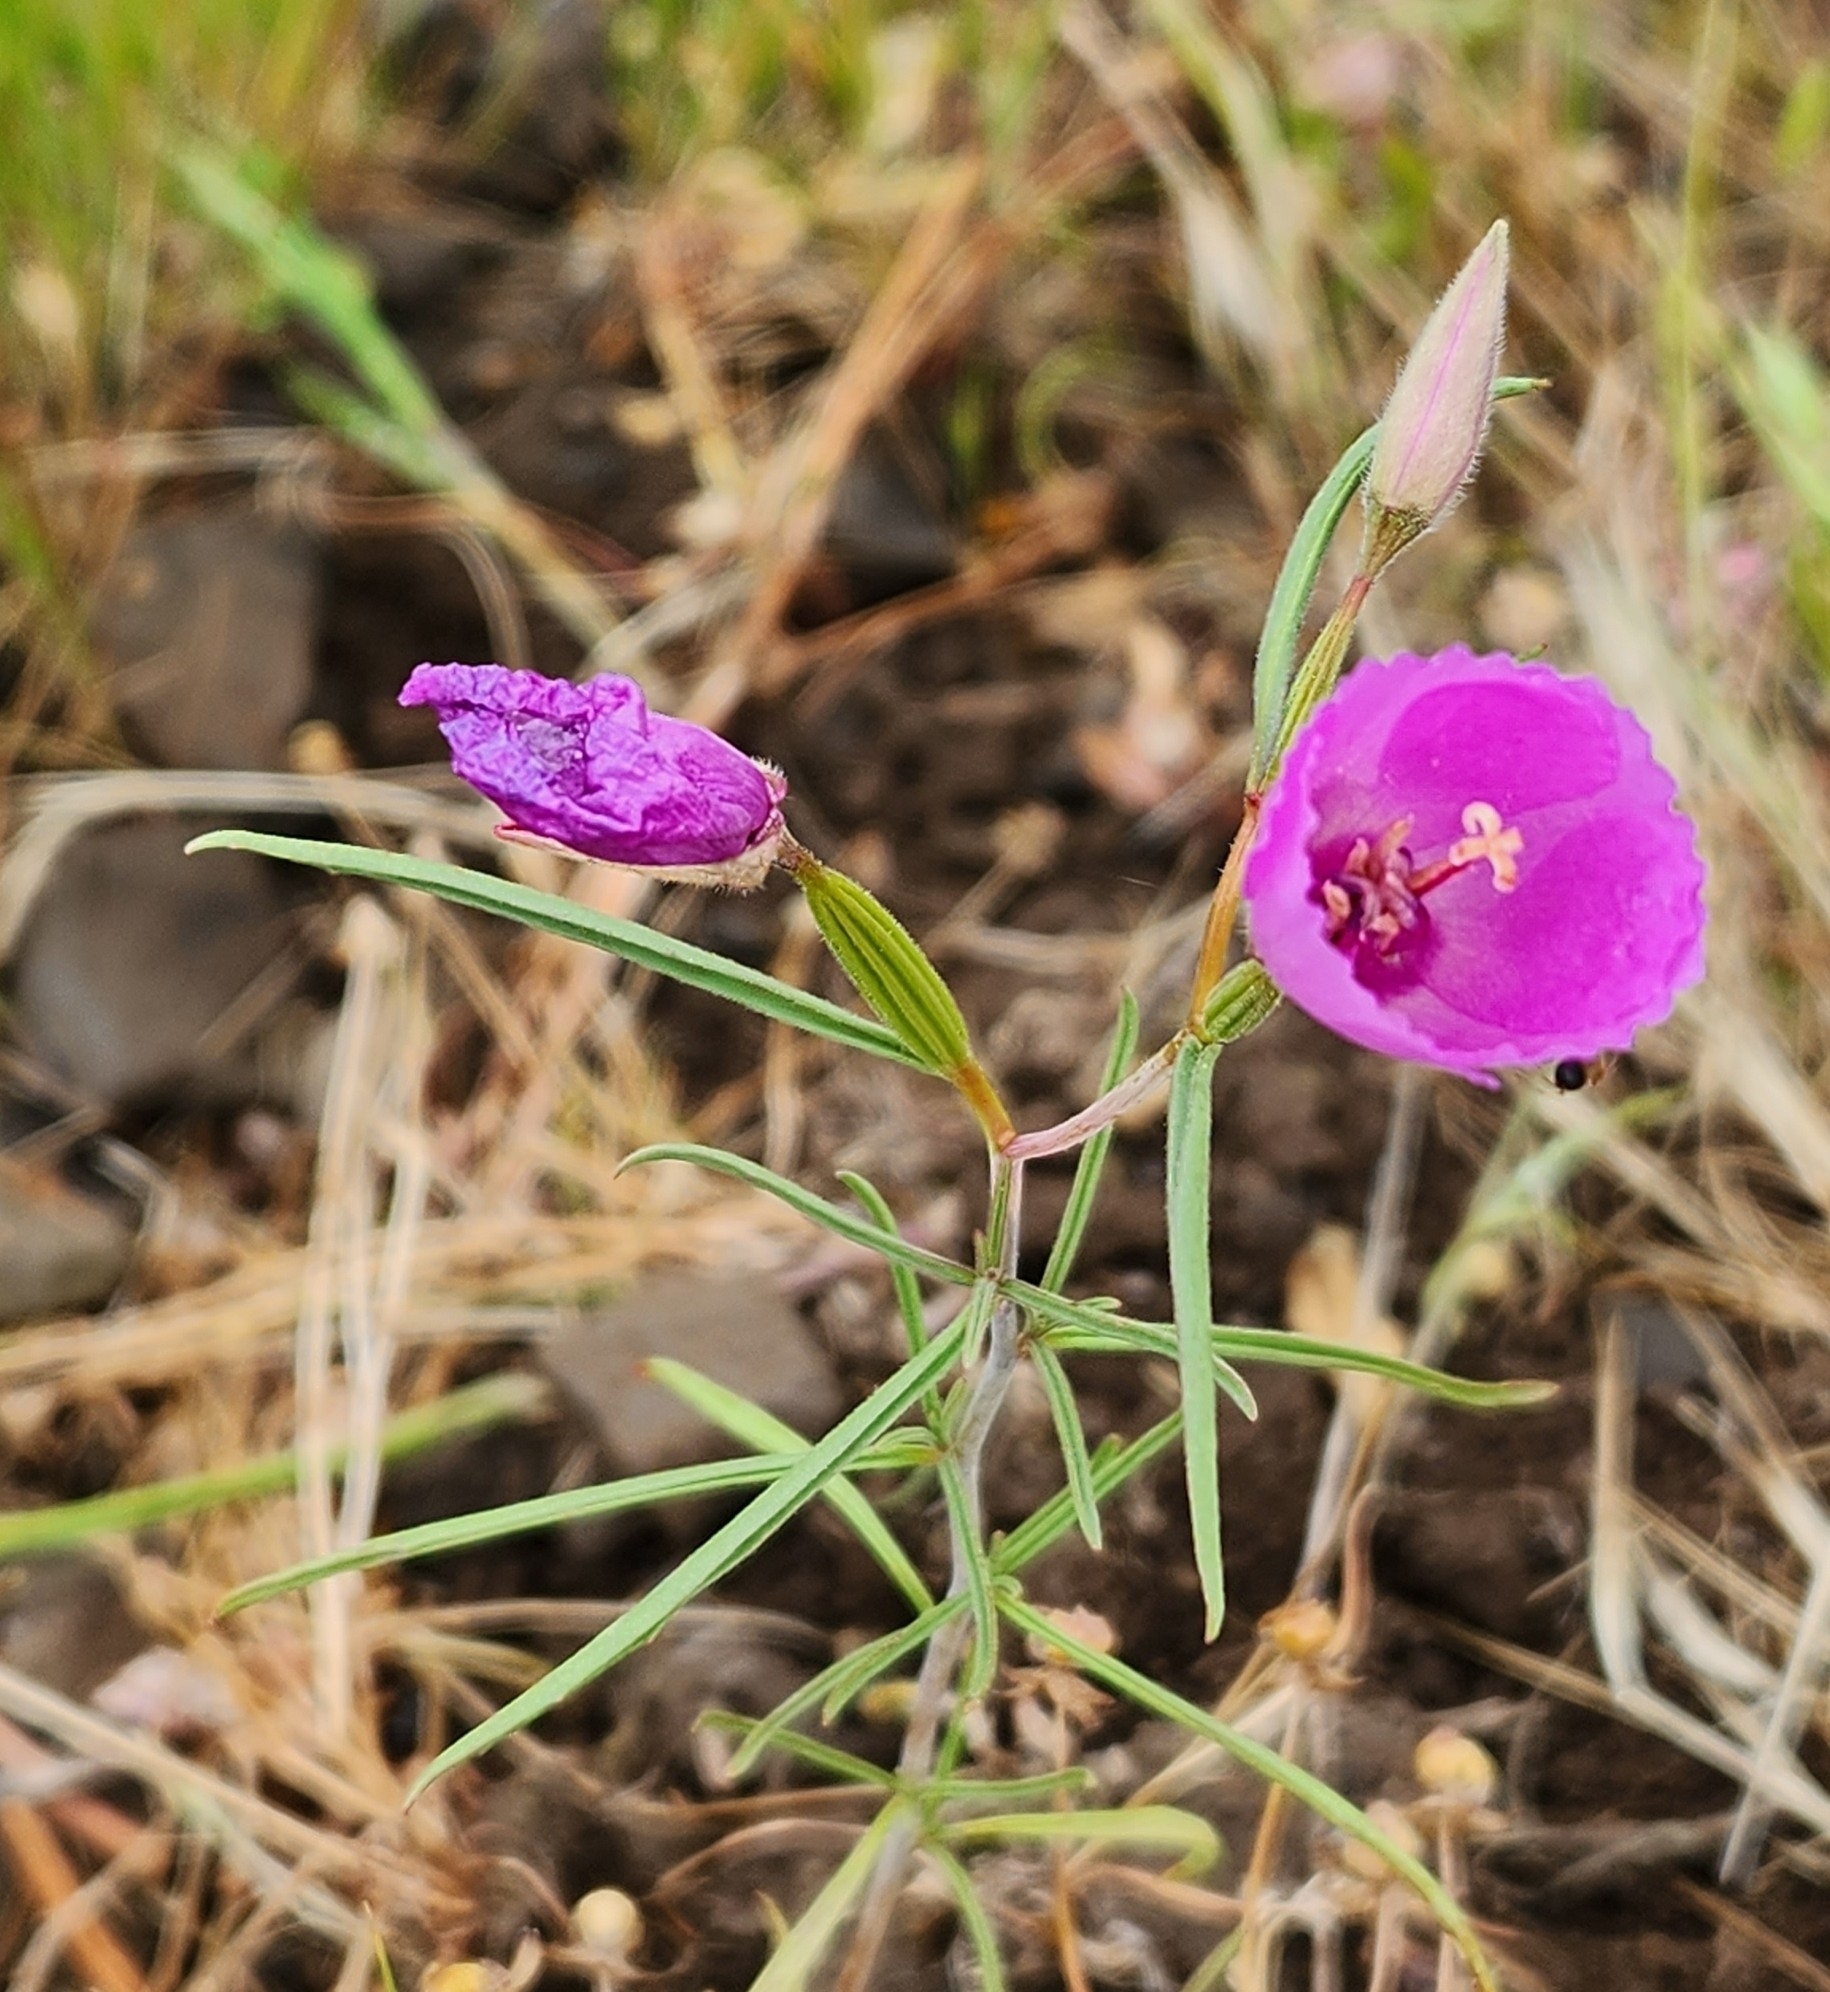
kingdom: Plantae
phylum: Tracheophyta
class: Magnoliopsida
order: Myrtales
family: Onagraceae
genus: Clarkia
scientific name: Clarkia arcuata
